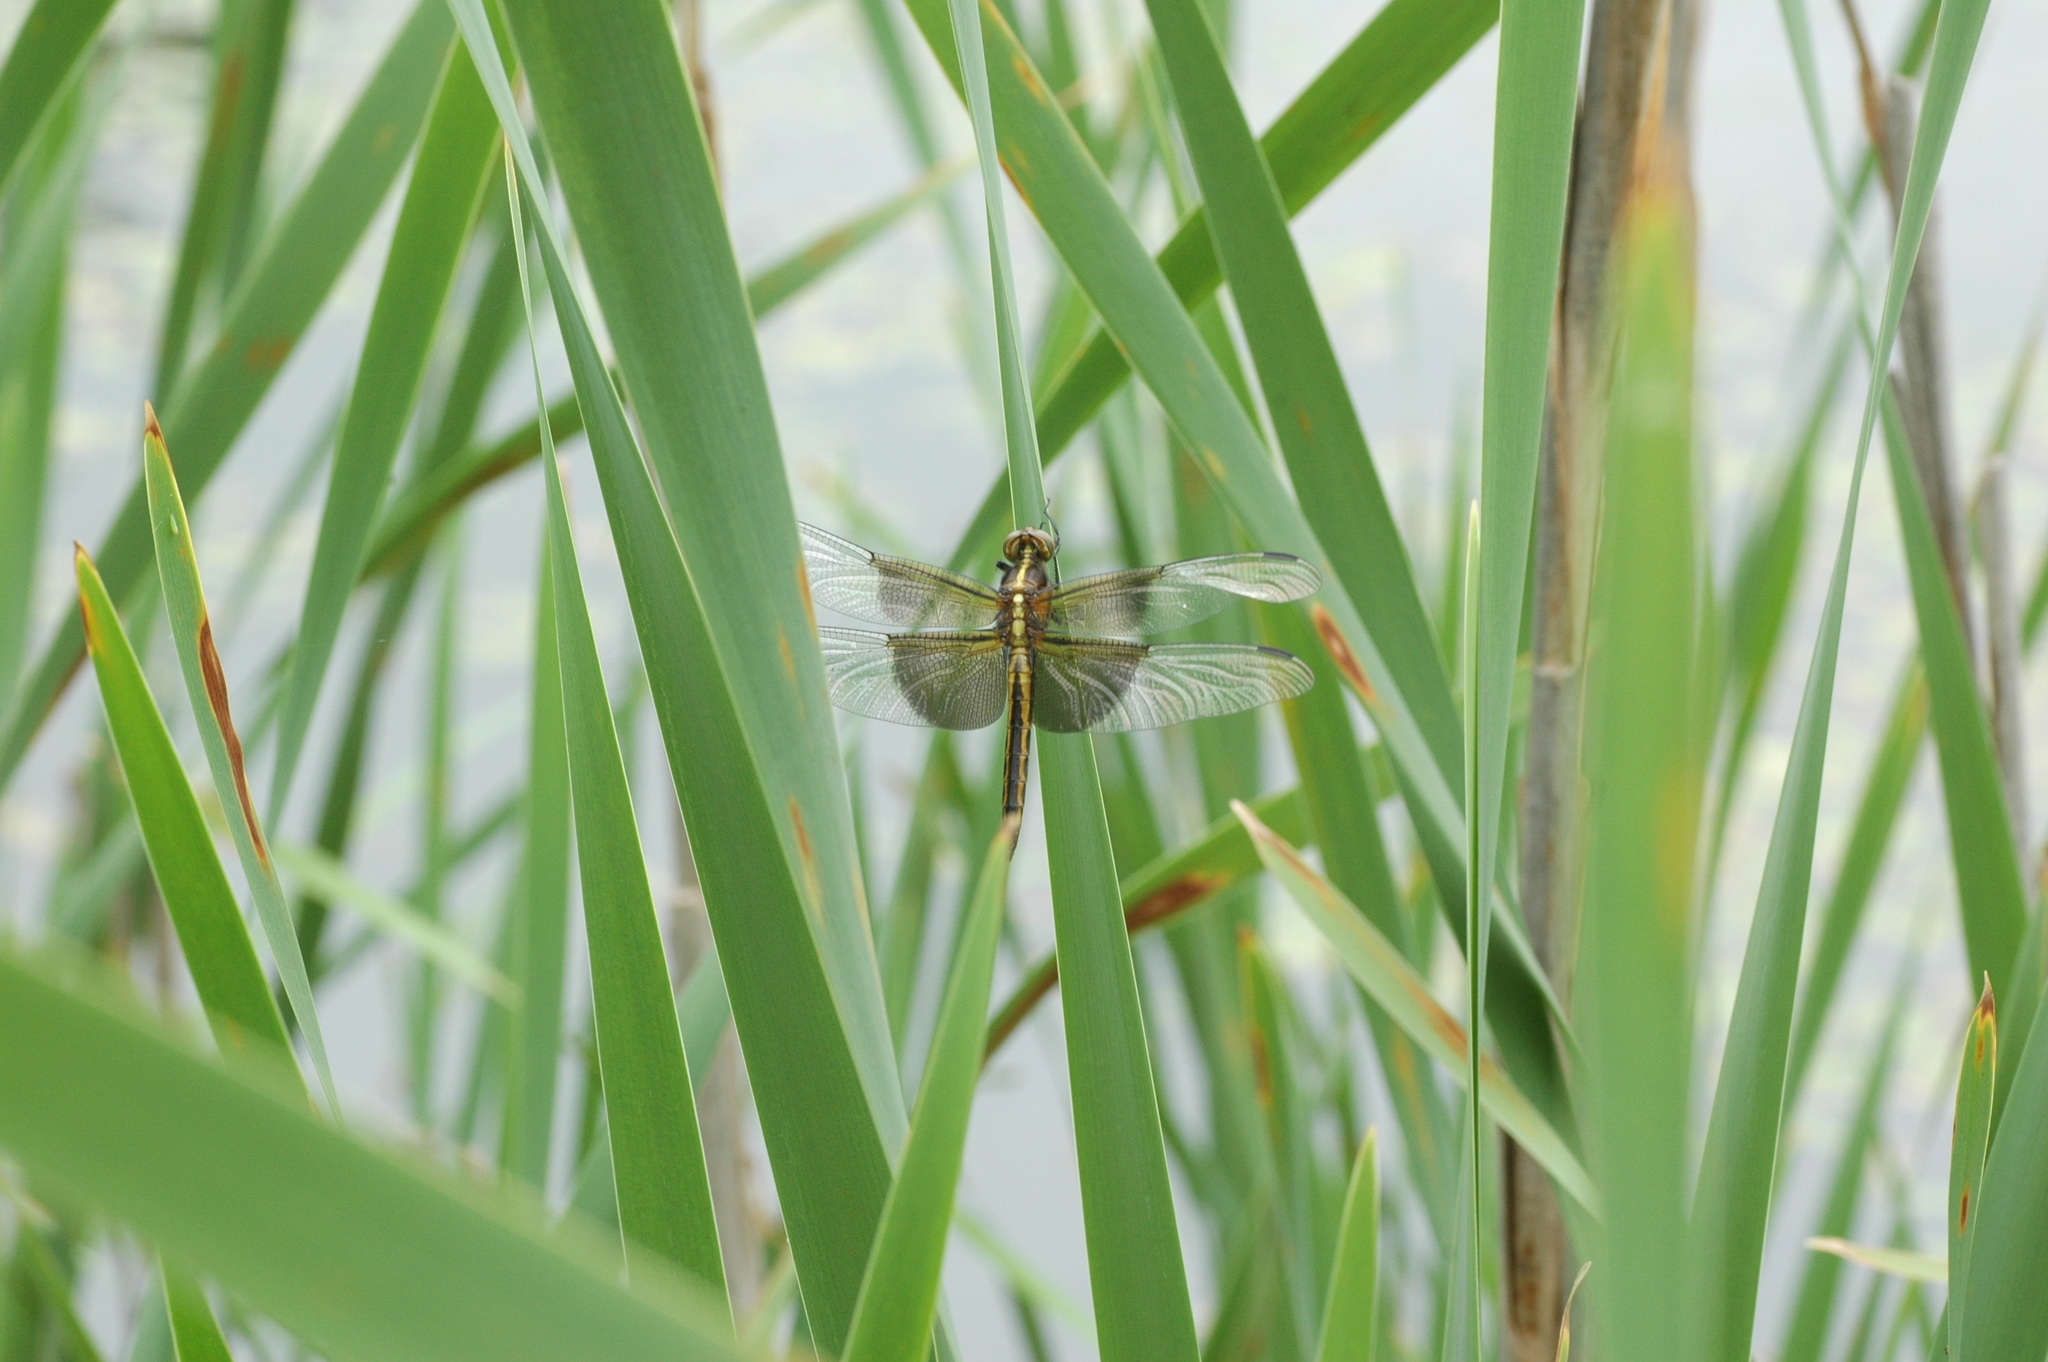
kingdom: Animalia
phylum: Arthropoda
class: Insecta
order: Odonata
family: Libellulidae
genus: Libellula
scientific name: Libellula luctuosa
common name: Widow skimmer
